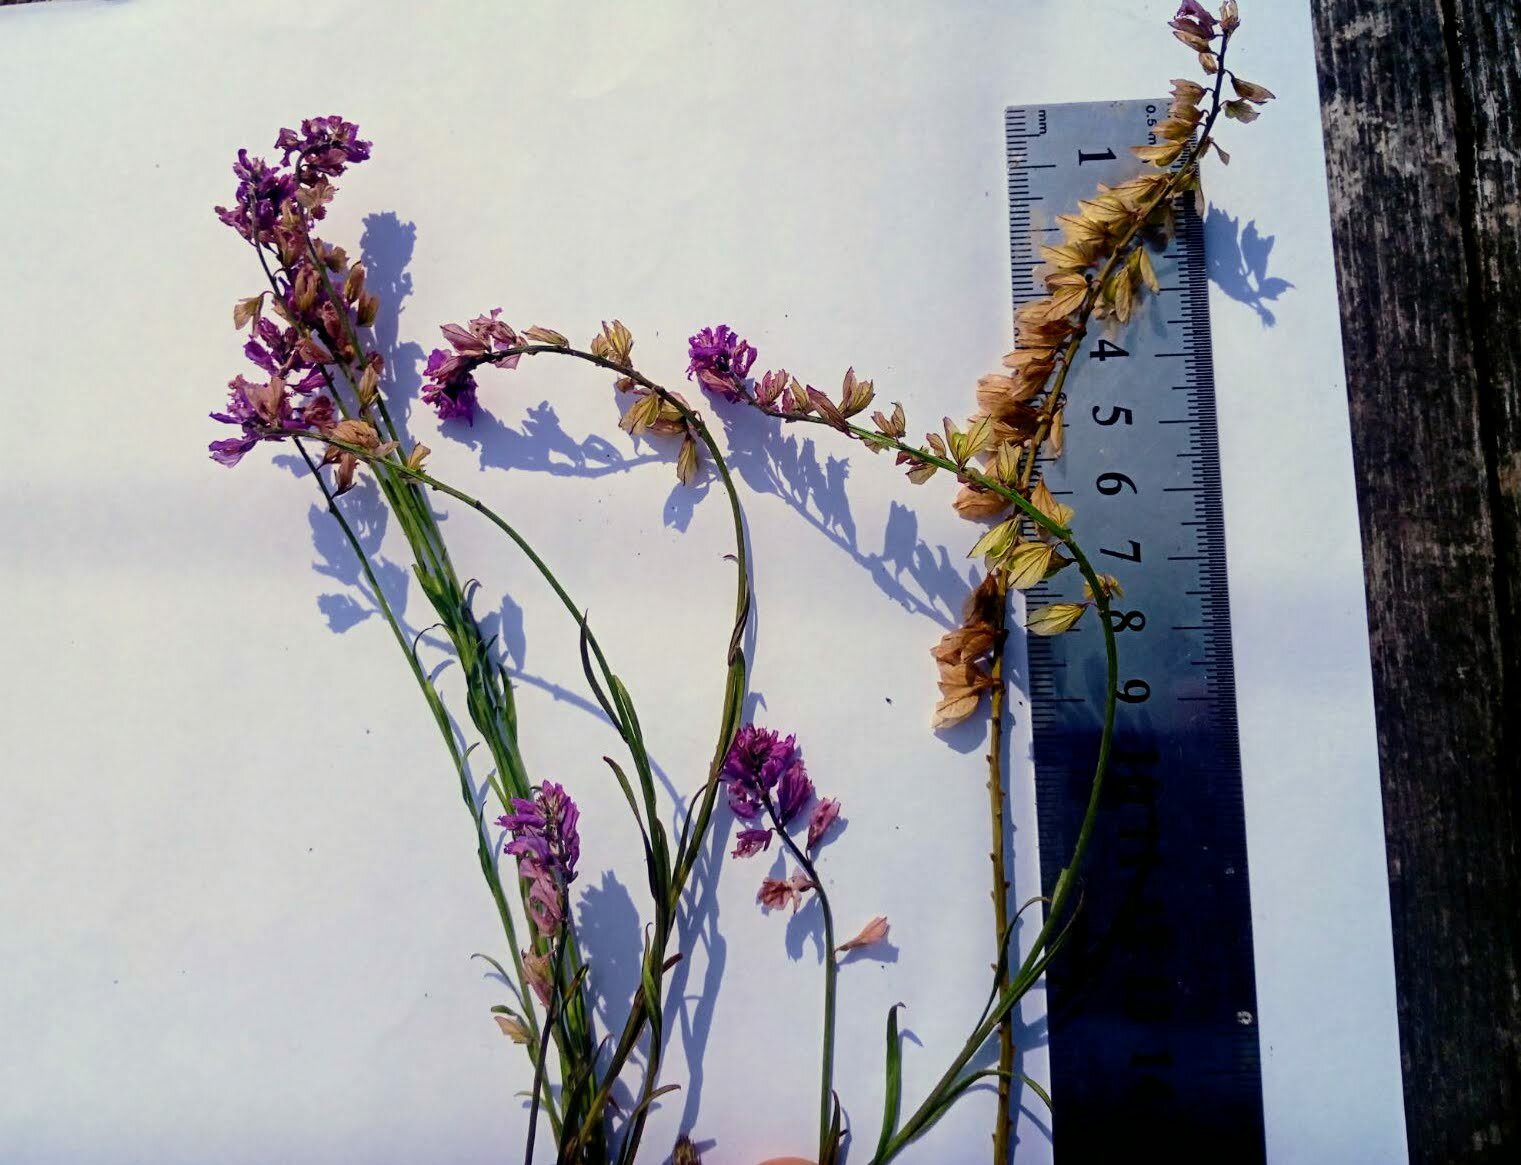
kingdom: Plantae
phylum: Tracheophyta
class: Magnoliopsida
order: Fabales
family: Polygalaceae
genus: Polygala
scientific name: Polygala comosa
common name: Tufted milkwort
